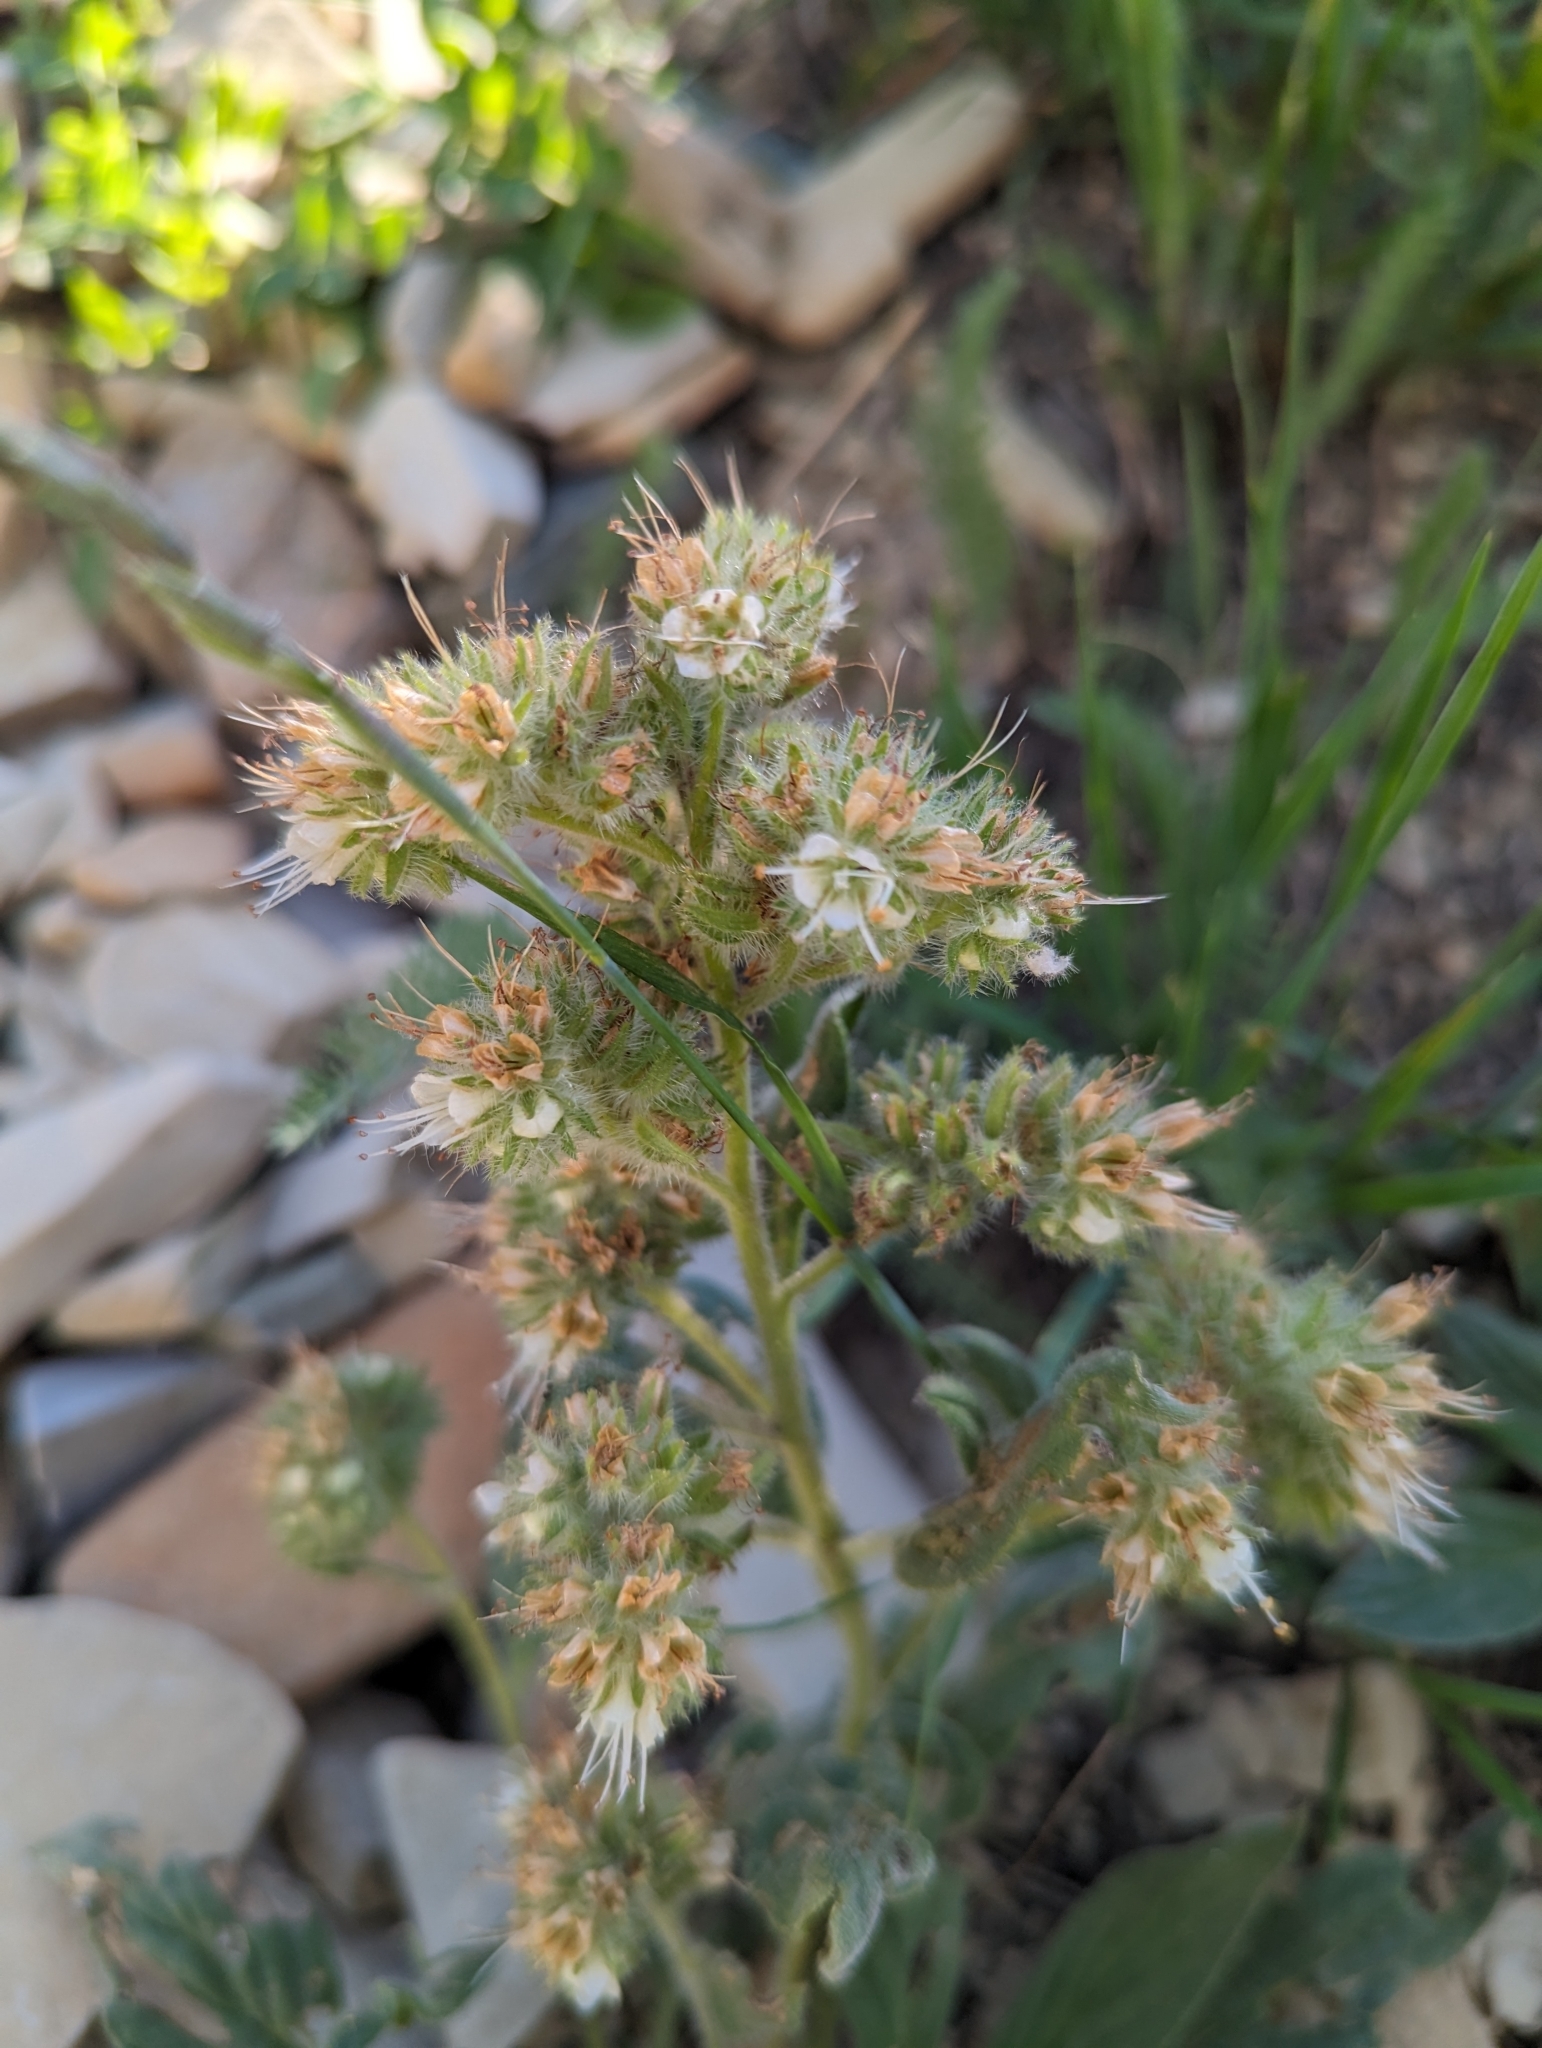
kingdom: Plantae
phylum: Tracheophyta
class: Magnoliopsida
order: Boraginales
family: Hydrophyllaceae
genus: Phacelia
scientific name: Phacelia hastata
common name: Silver-leaved phacelia
